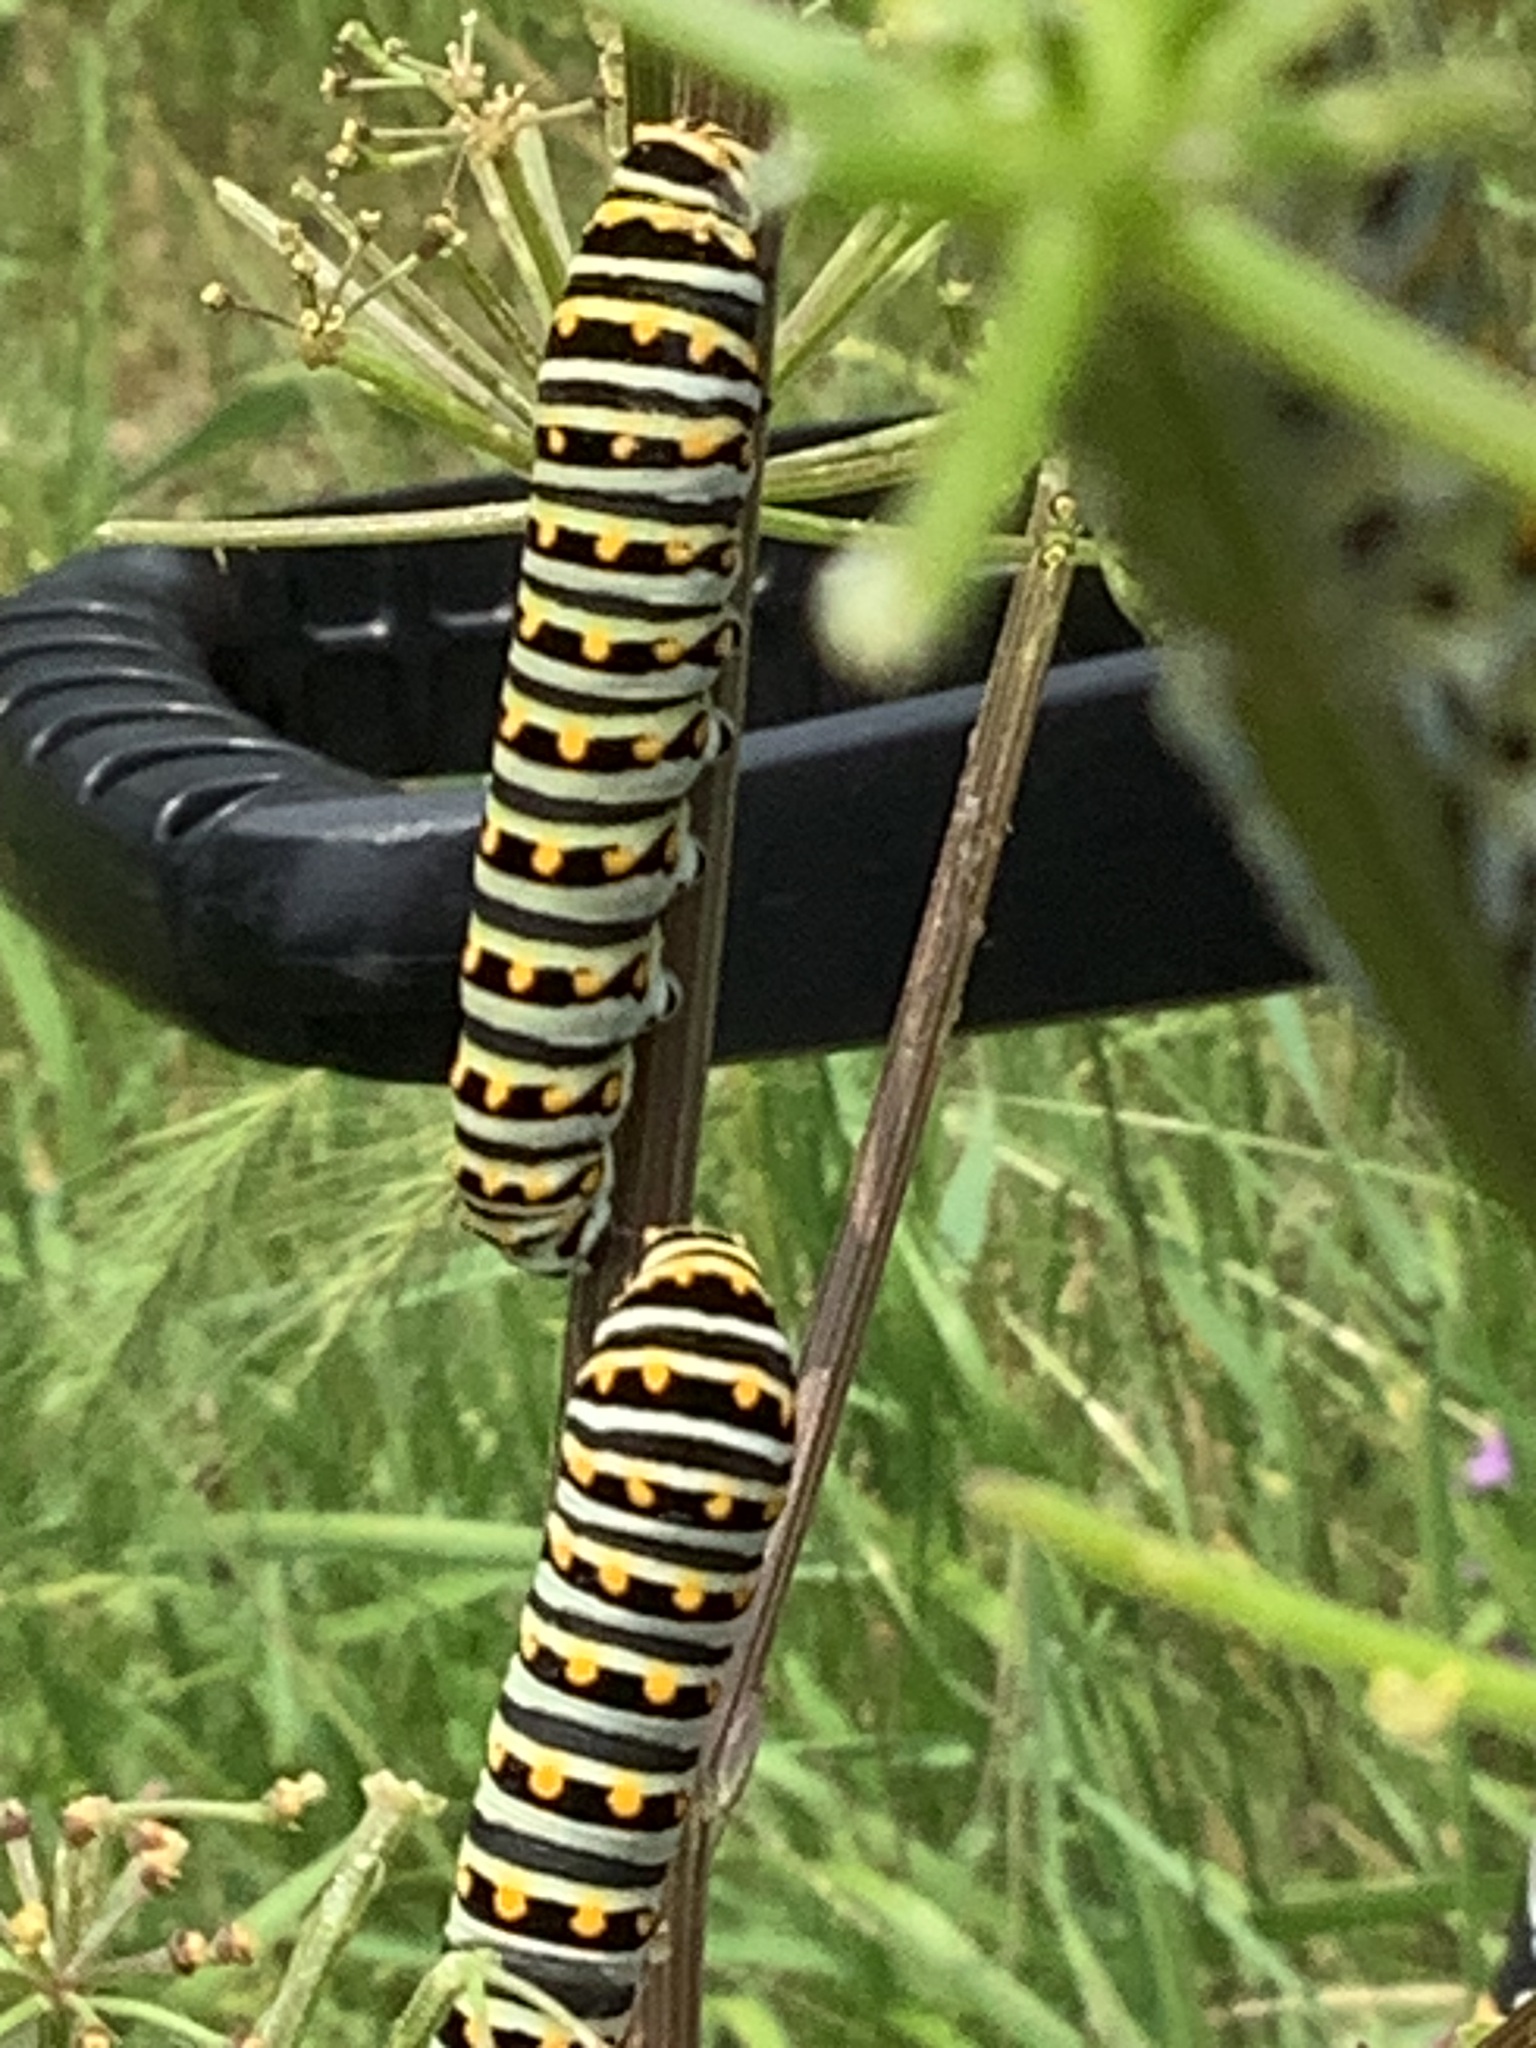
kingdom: Animalia
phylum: Arthropoda
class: Insecta
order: Lepidoptera
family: Papilionidae
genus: Papilio
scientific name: Papilio polyxenes
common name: Black swallowtail
